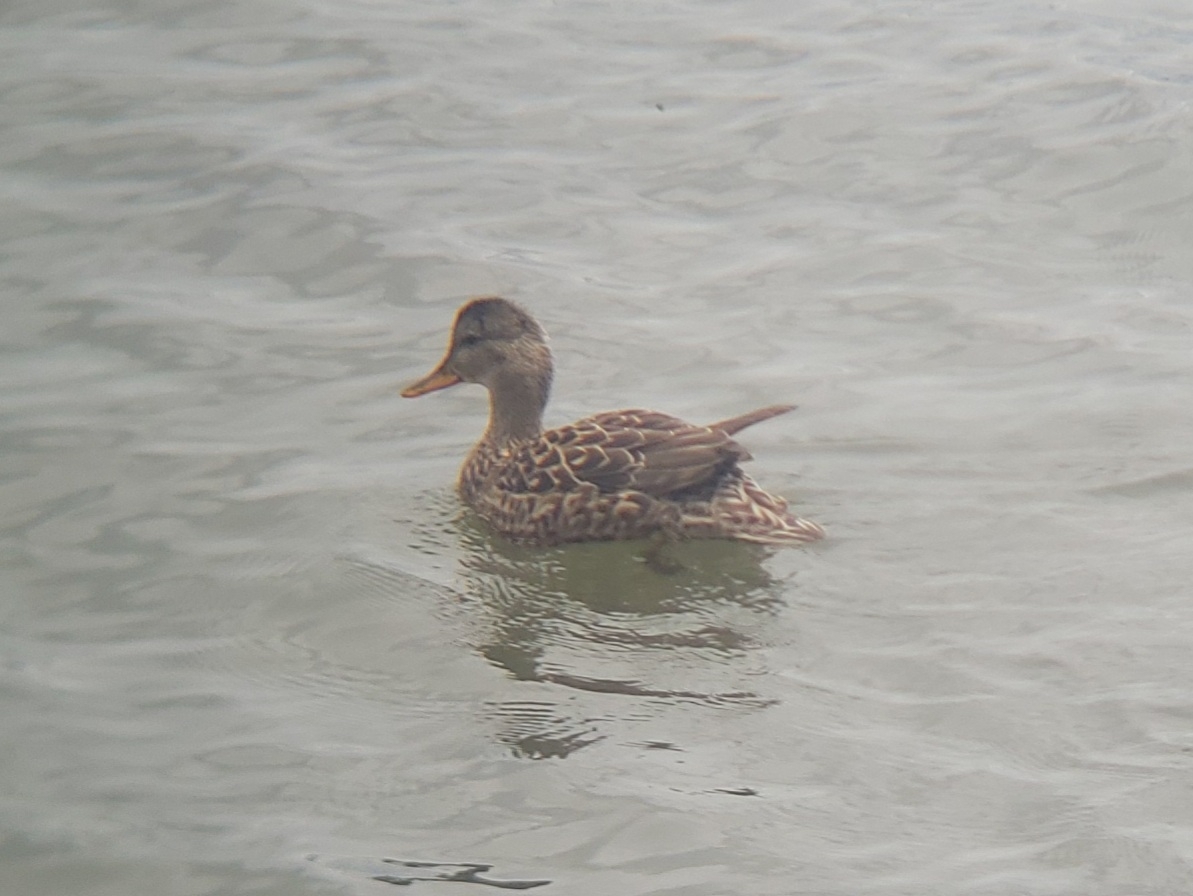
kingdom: Animalia
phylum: Chordata
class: Aves
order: Anseriformes
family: Anatidae
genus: Mareca
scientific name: Mareca strepera
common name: Gadwall
